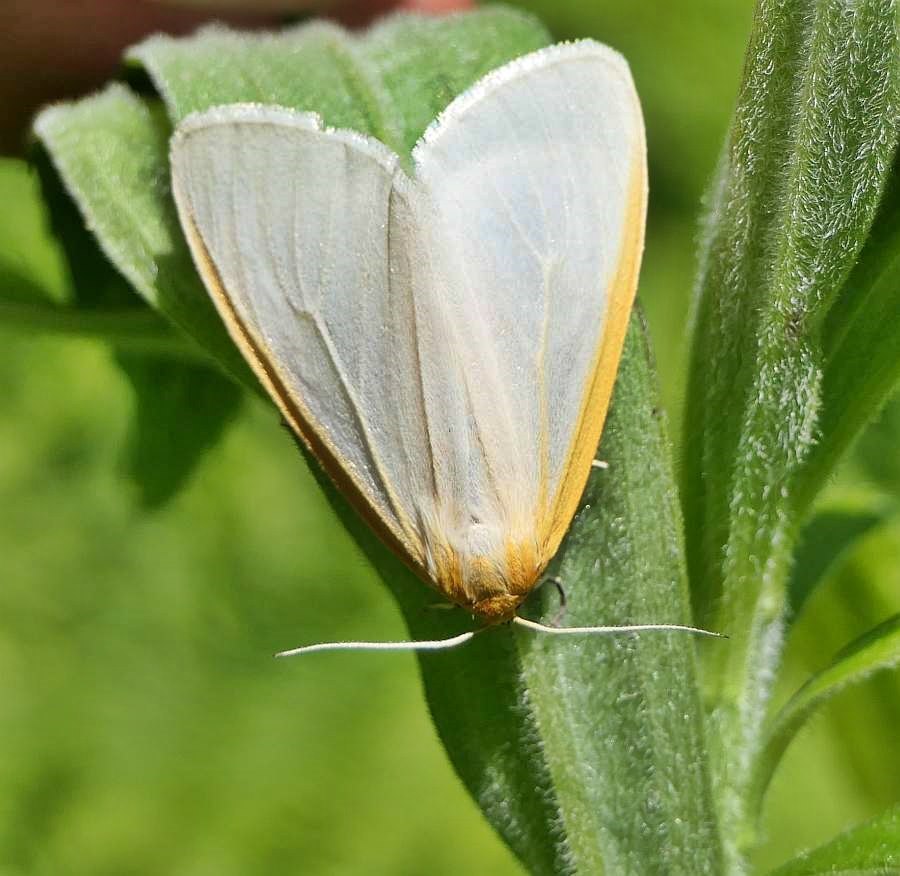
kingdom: Animalia
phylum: Arthropoda
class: Insecta
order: Lepidoptera
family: Erebidae
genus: Cycnia
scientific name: Cycnia tenera
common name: Delicate cycnia moth
